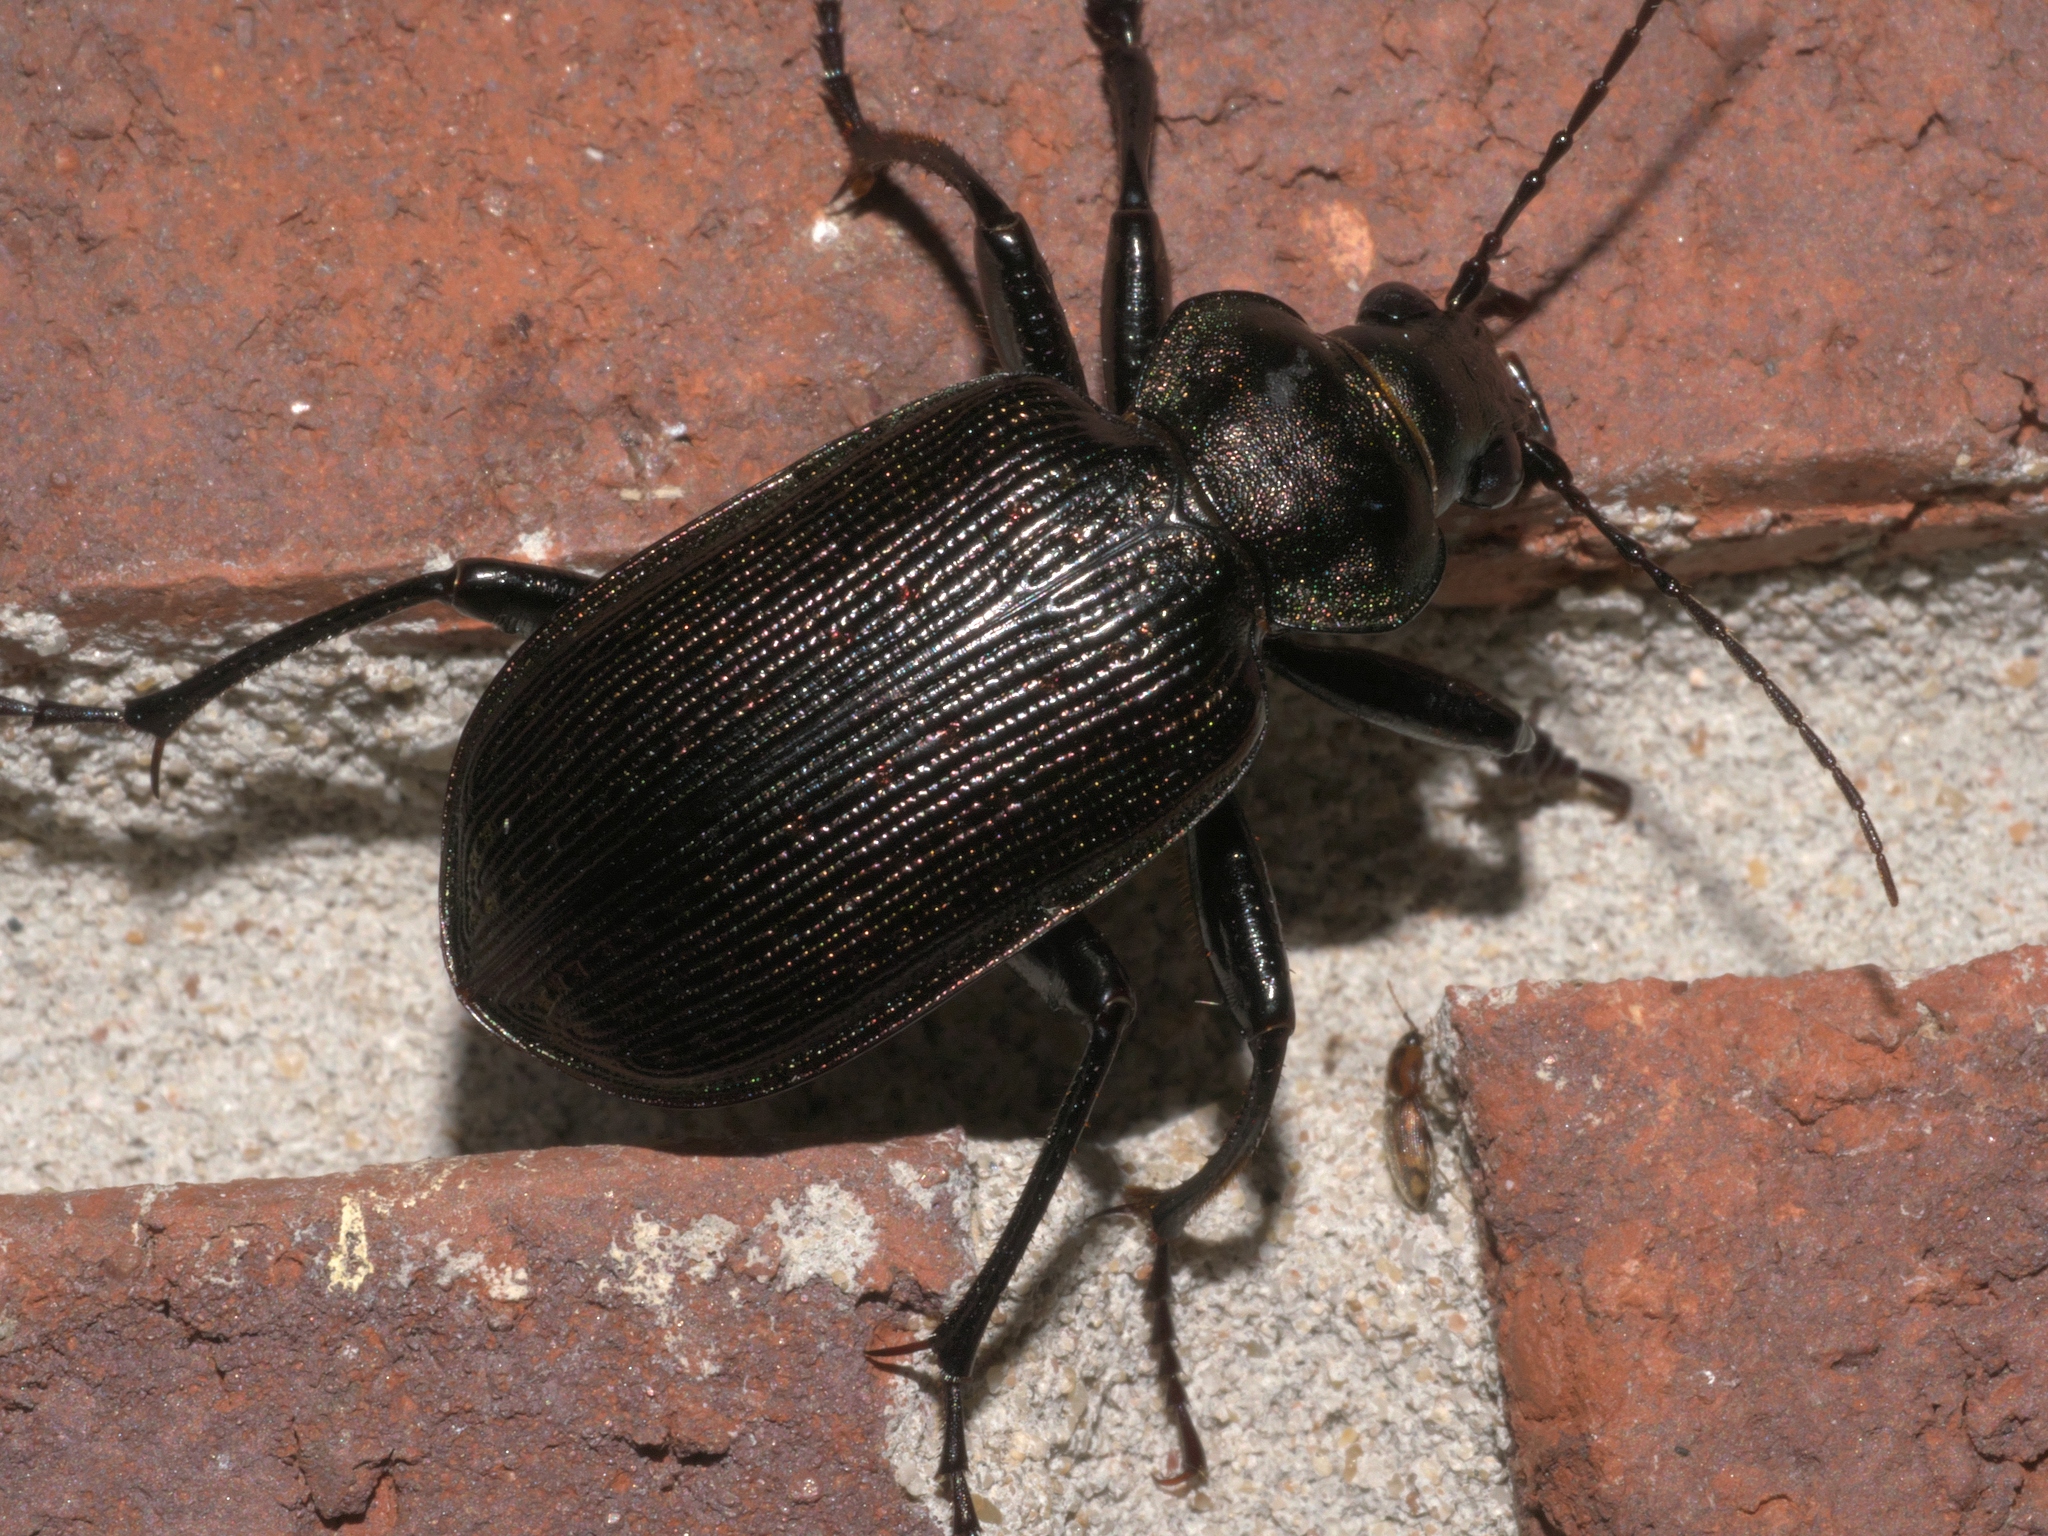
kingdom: Animalia
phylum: Arthropoda
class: Insecta
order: Coleoptera
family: Carabidae
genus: Calosoma
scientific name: Calosoma sayi
